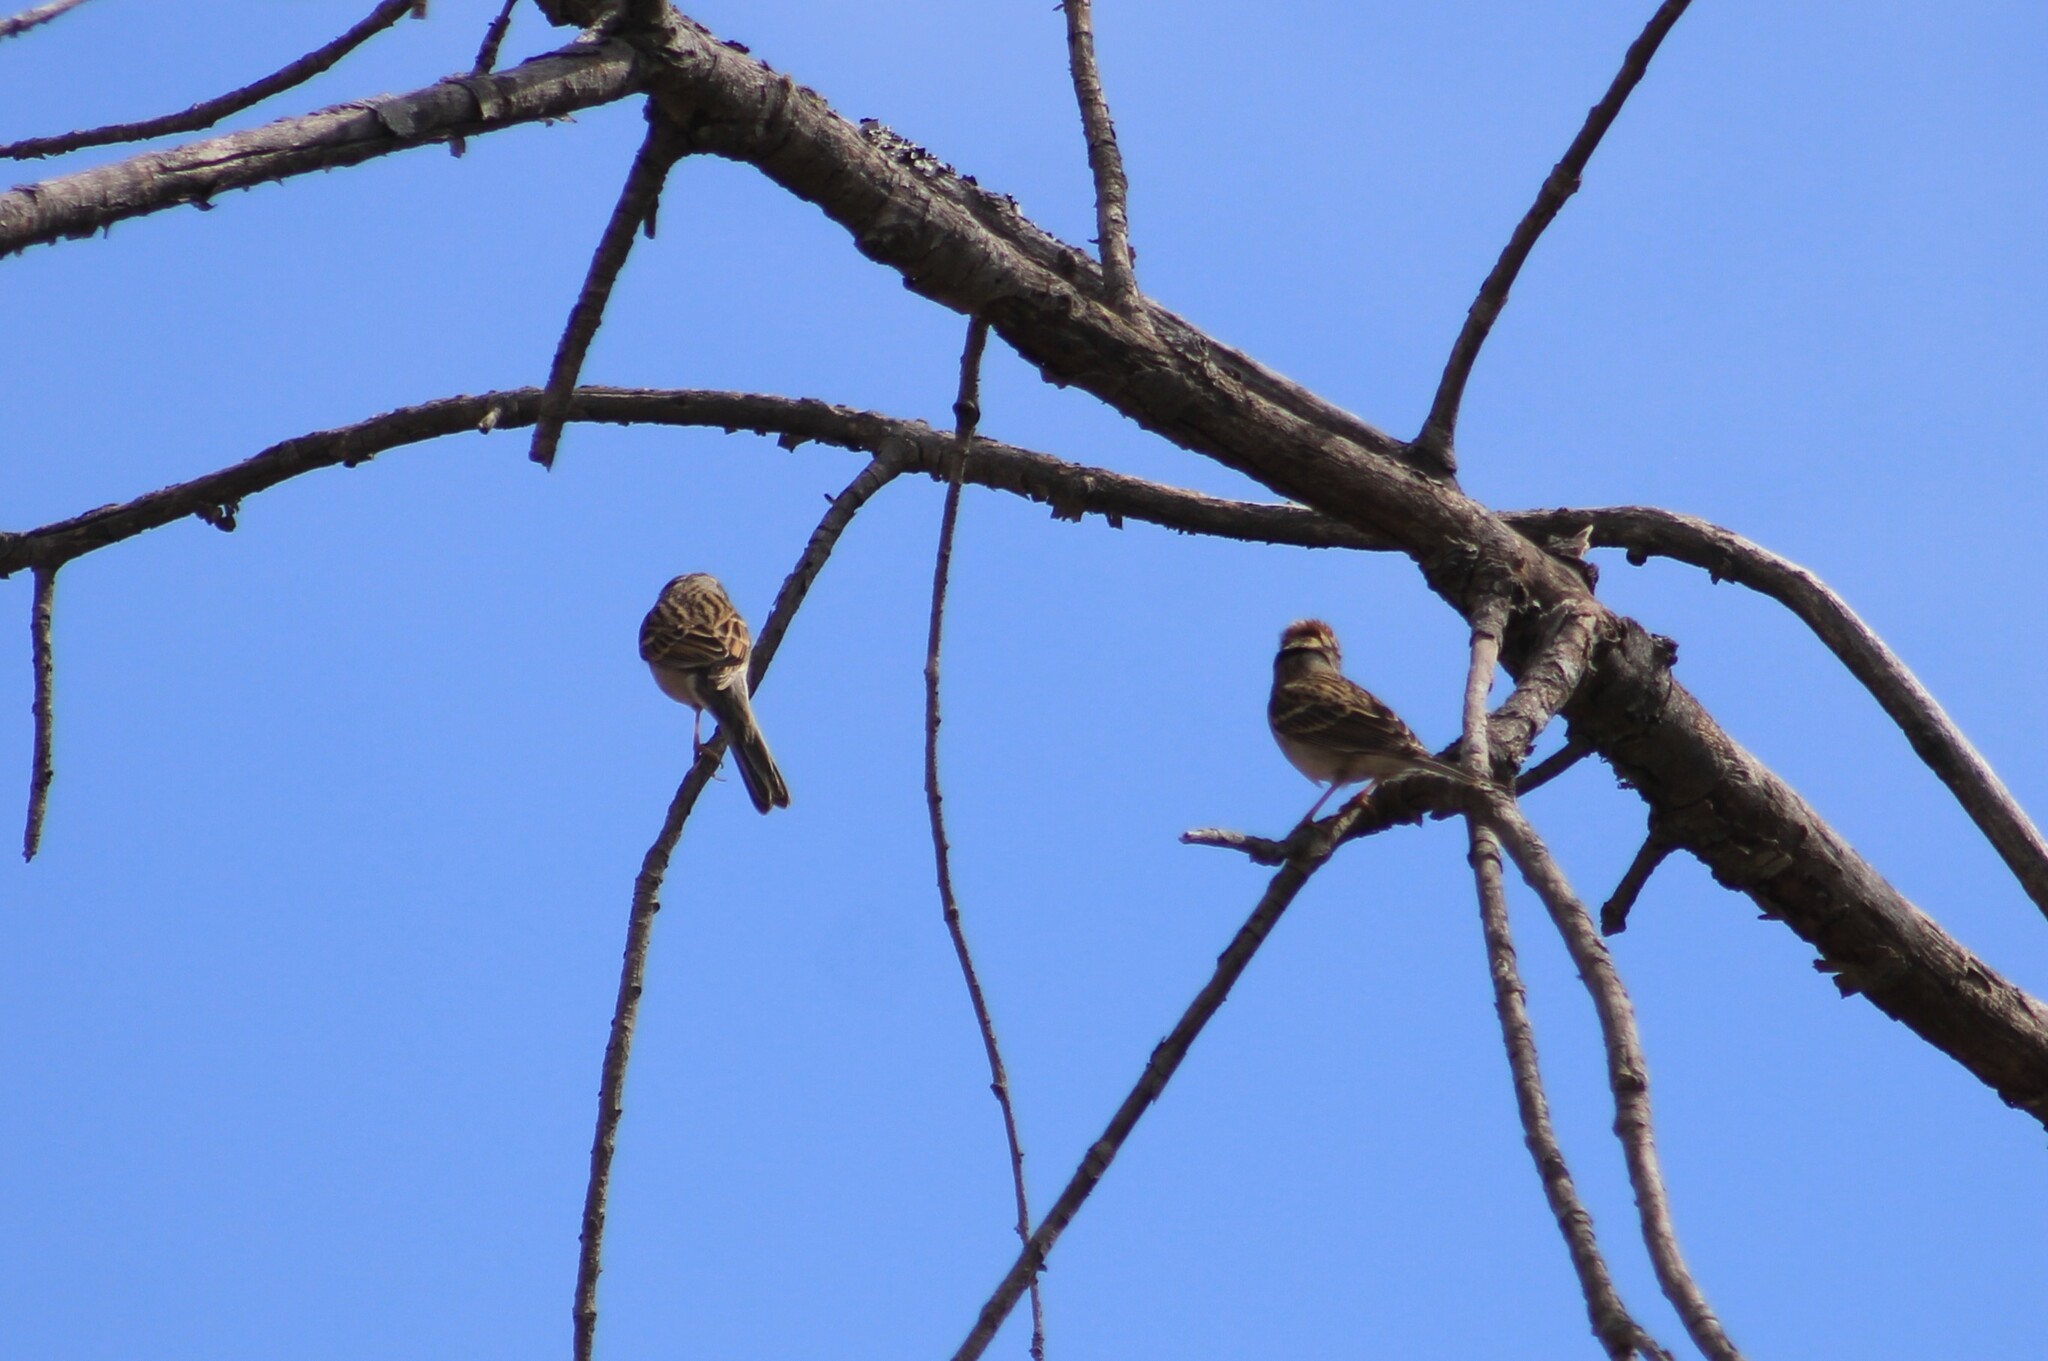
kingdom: Animalia
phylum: Chordata
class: Aves
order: Passeriformes
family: Passerellidae
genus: Spizella
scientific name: Spizella passerina
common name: Chipping sparrow
